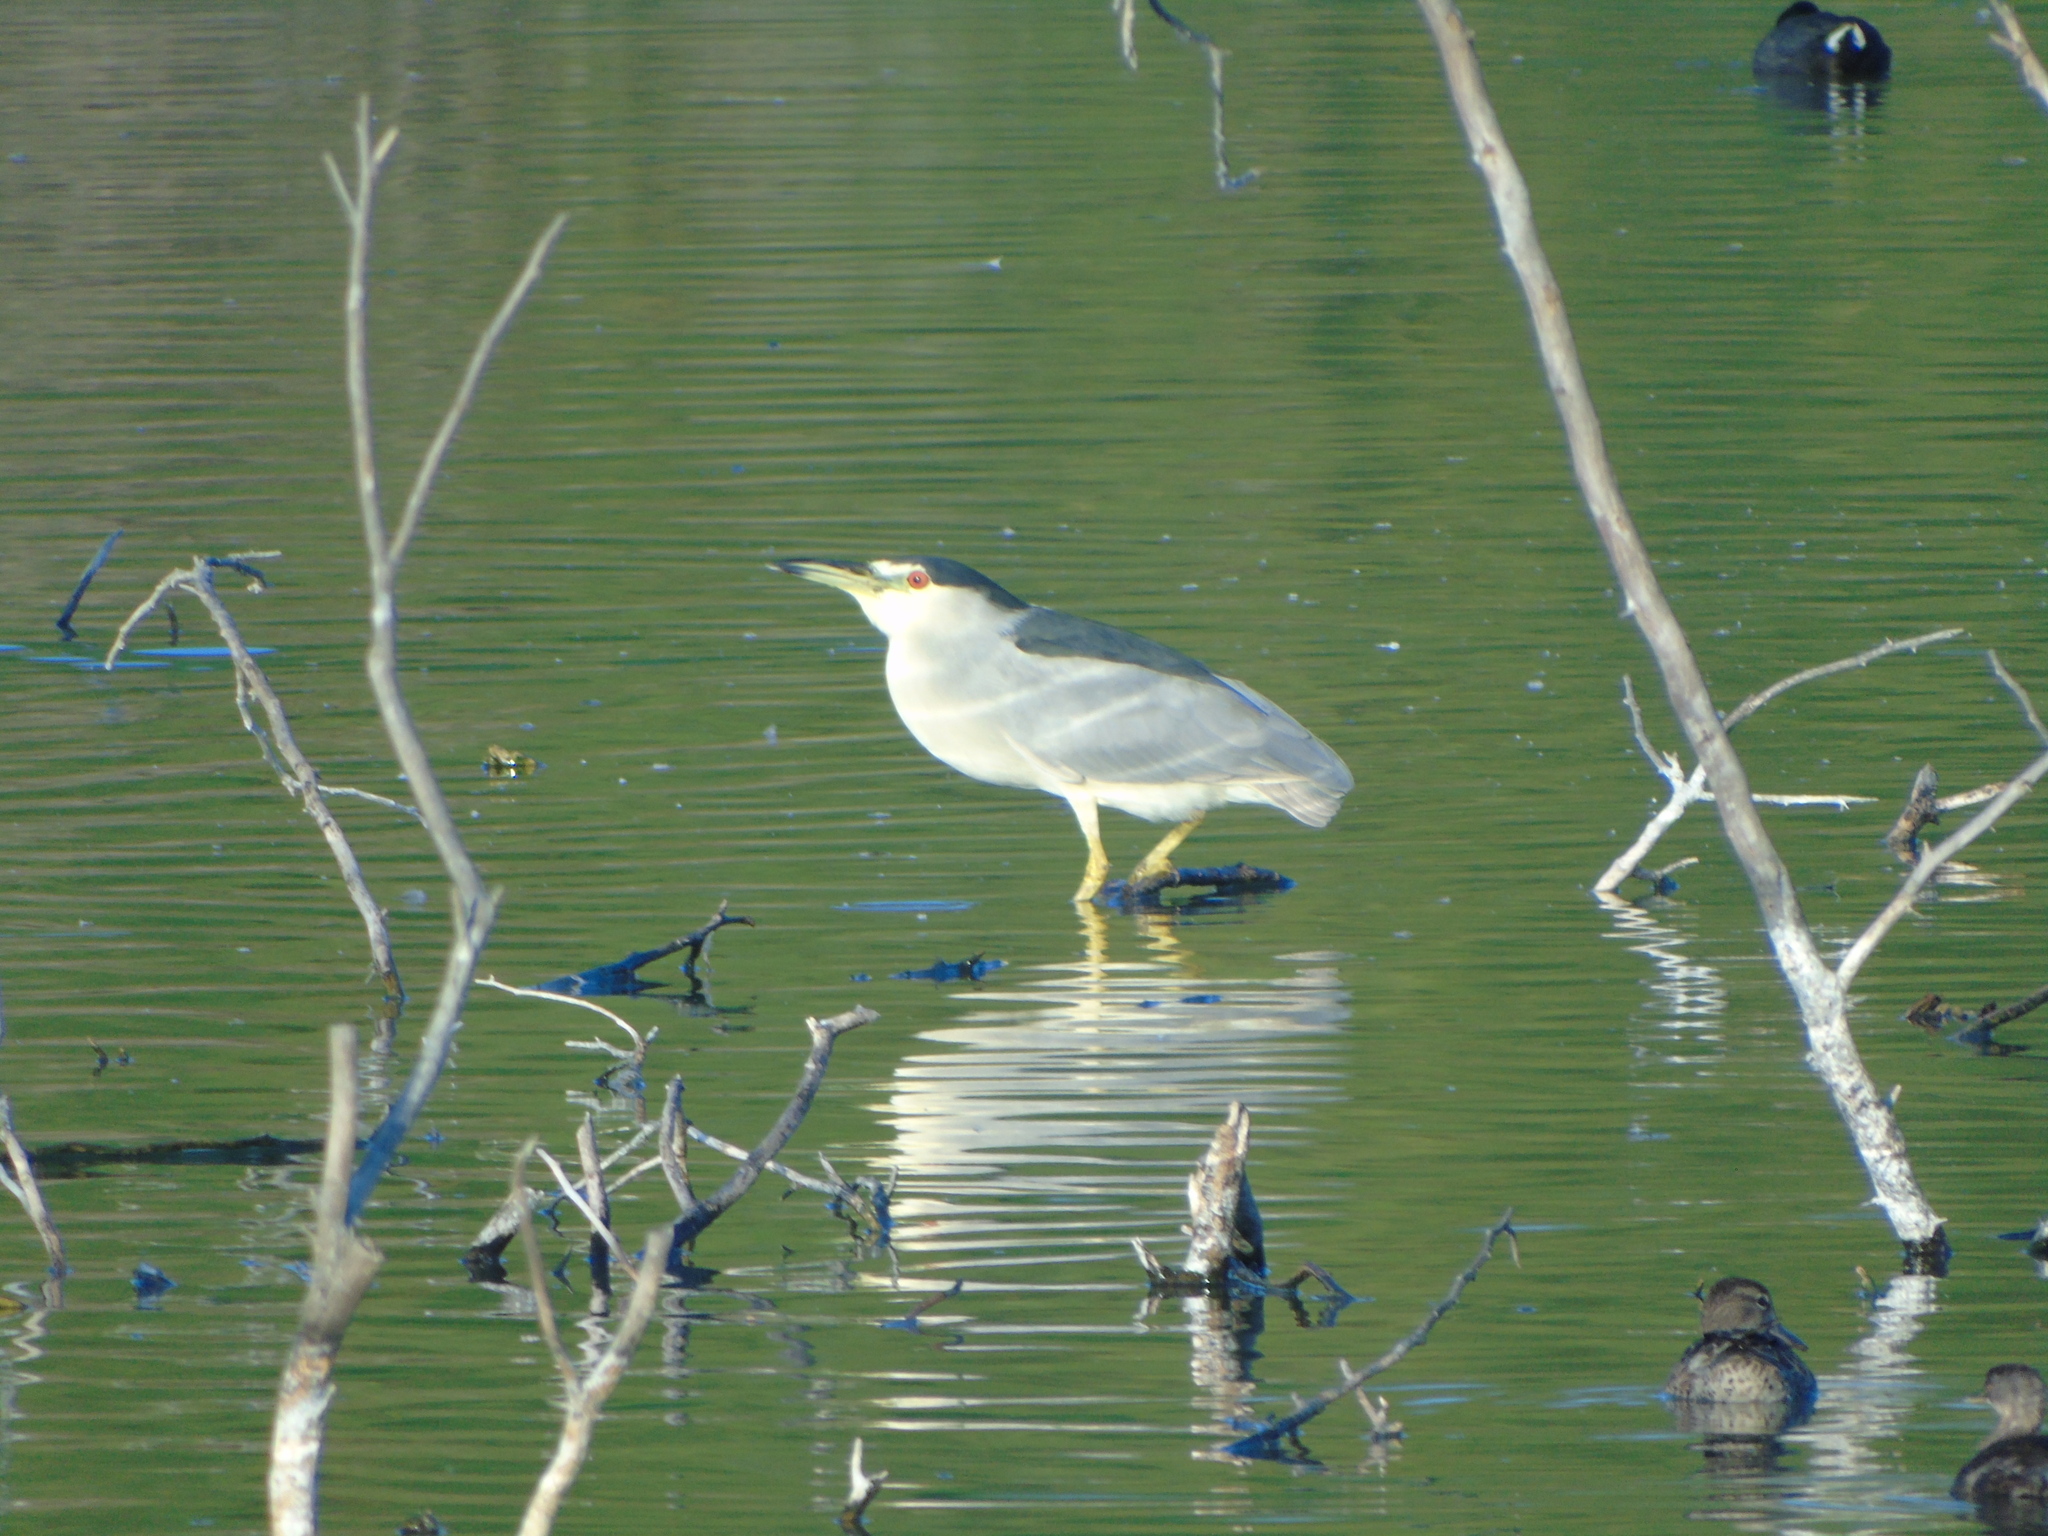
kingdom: Animalia
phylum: Chordata
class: Aves
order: Pelecaniformes
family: Ardeidae
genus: Nycticorax
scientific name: Nycticorax nycticorax
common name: Black-crowned night heron
